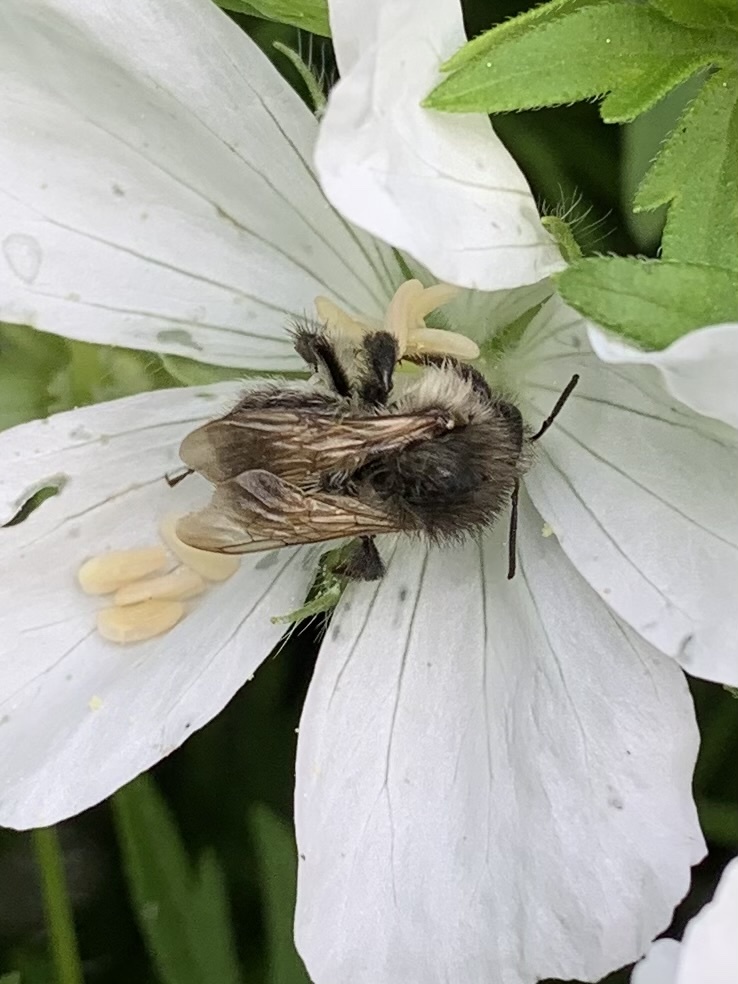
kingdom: Animalia
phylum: Arthropoda
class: Insecta
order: Hymenoptera
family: Apidae
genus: Bombus
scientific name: Bombus pascuorum
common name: Common carder bee
